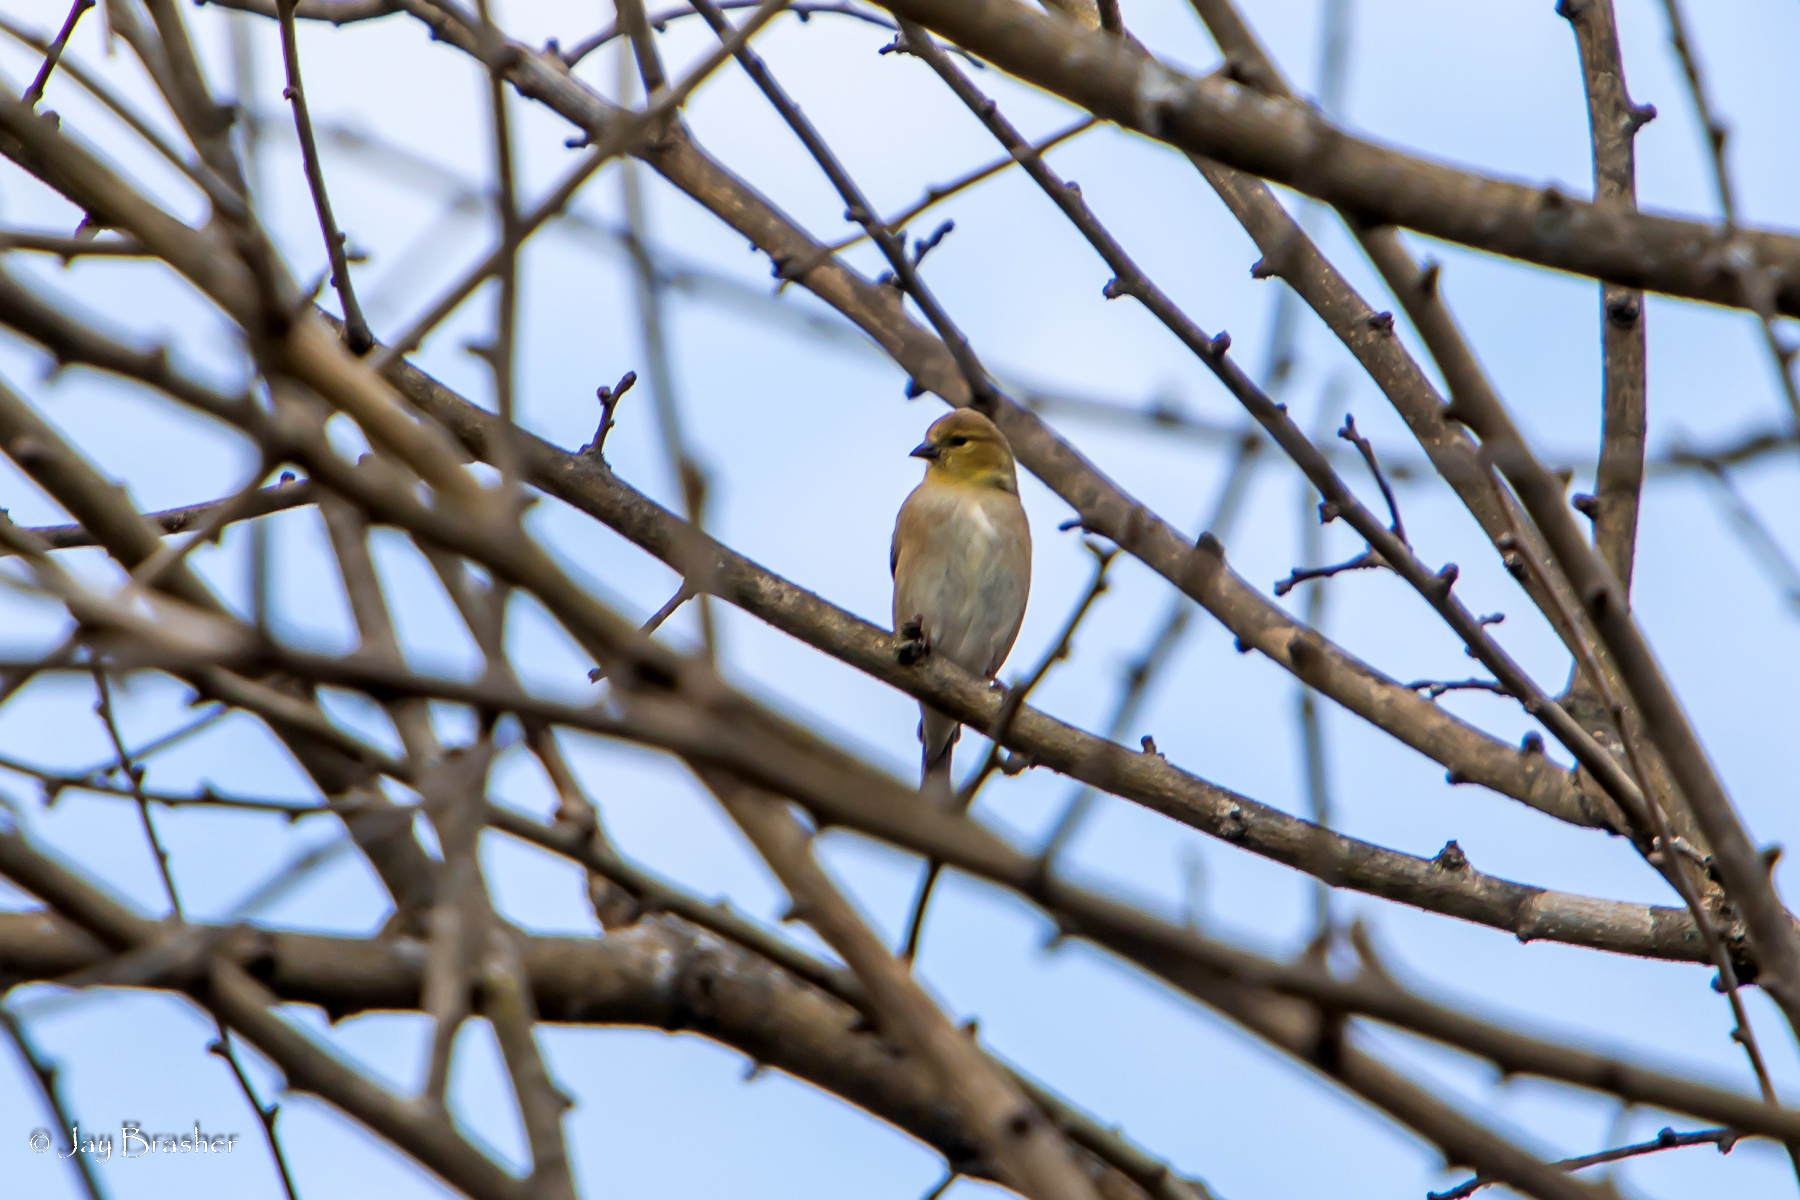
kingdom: Animalia
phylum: Chordata
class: Aves
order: Passeriformes
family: Fringillidae
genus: Spinus
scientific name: Spinus tristis
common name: American goldfinch
